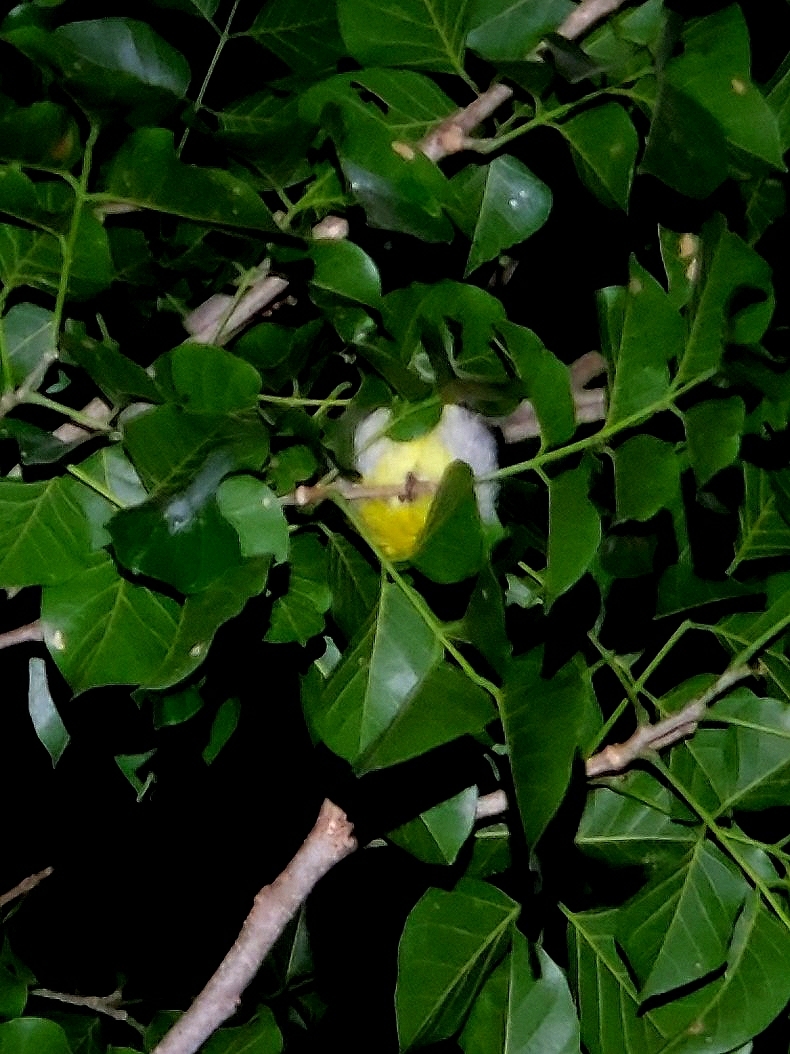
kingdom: Animalia
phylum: Chordata
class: Aves
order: Passeriformes
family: Nectariniidae
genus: Leptocoma
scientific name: Leptocoma zeylonica
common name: Purple-rumped sunbird
